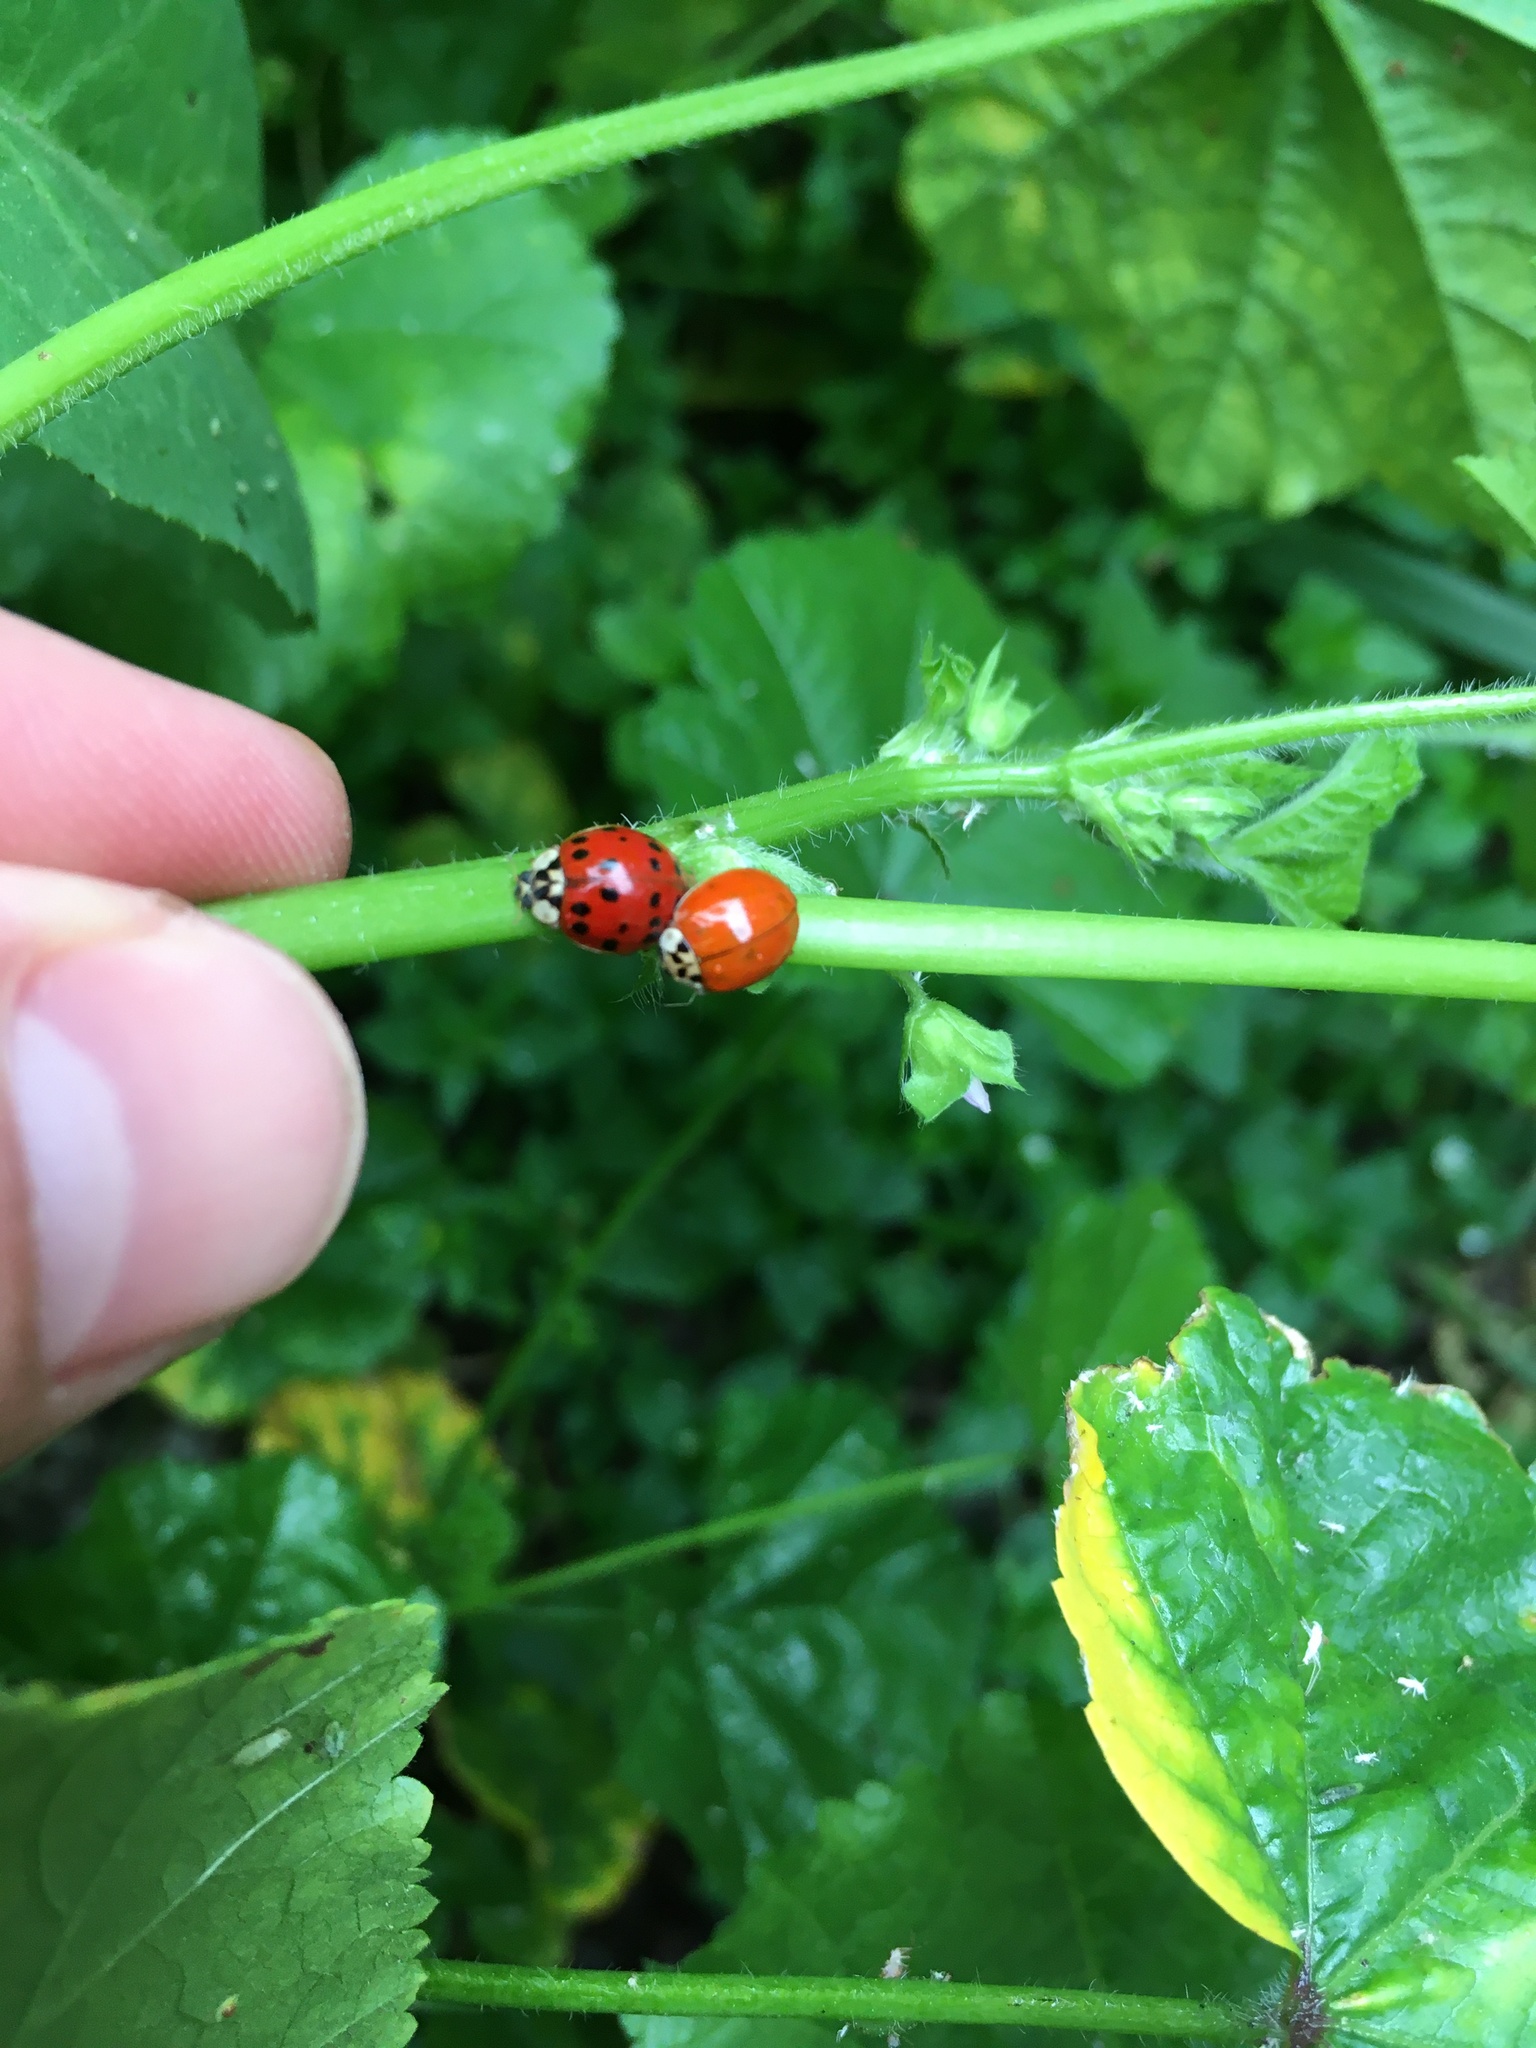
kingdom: Animalia
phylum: Arthropoda
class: Insecta
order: Coleoptera
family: Coccinellidae
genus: Harmonia
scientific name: Harmonia axyridis
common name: Harlequin ladybird
